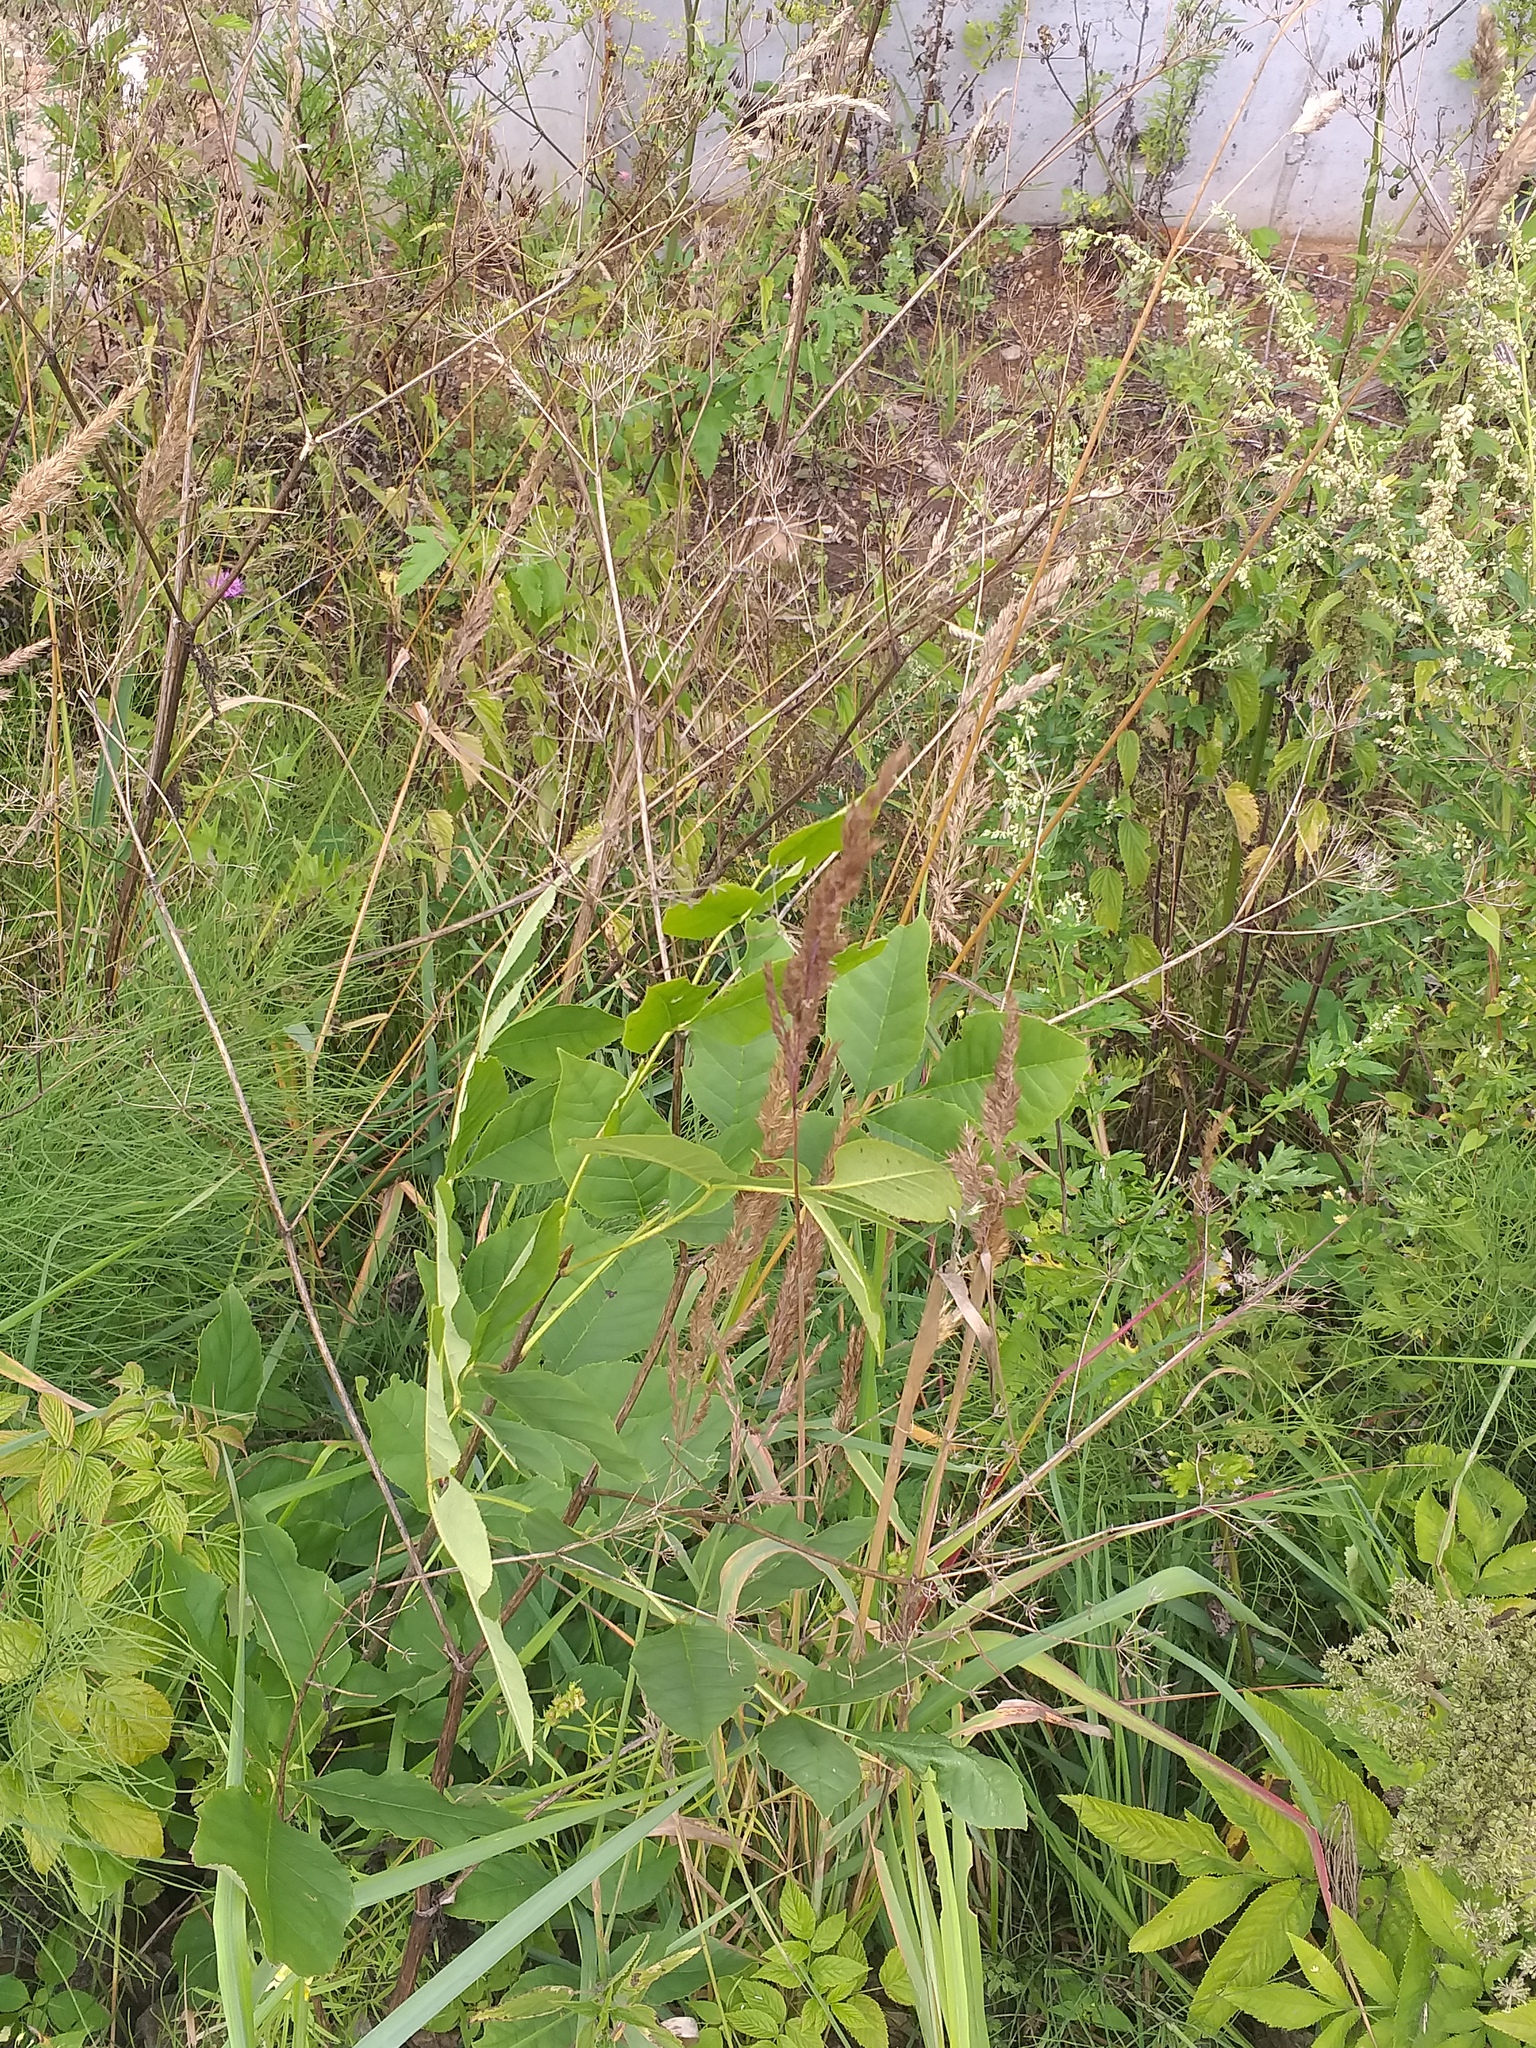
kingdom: Plantae
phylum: Tracheophyta
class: Magnoliopsida
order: Lamiales
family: Oleaceae
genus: Fraxinus
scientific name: Fraxinus pennsylvanica
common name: Green ash
